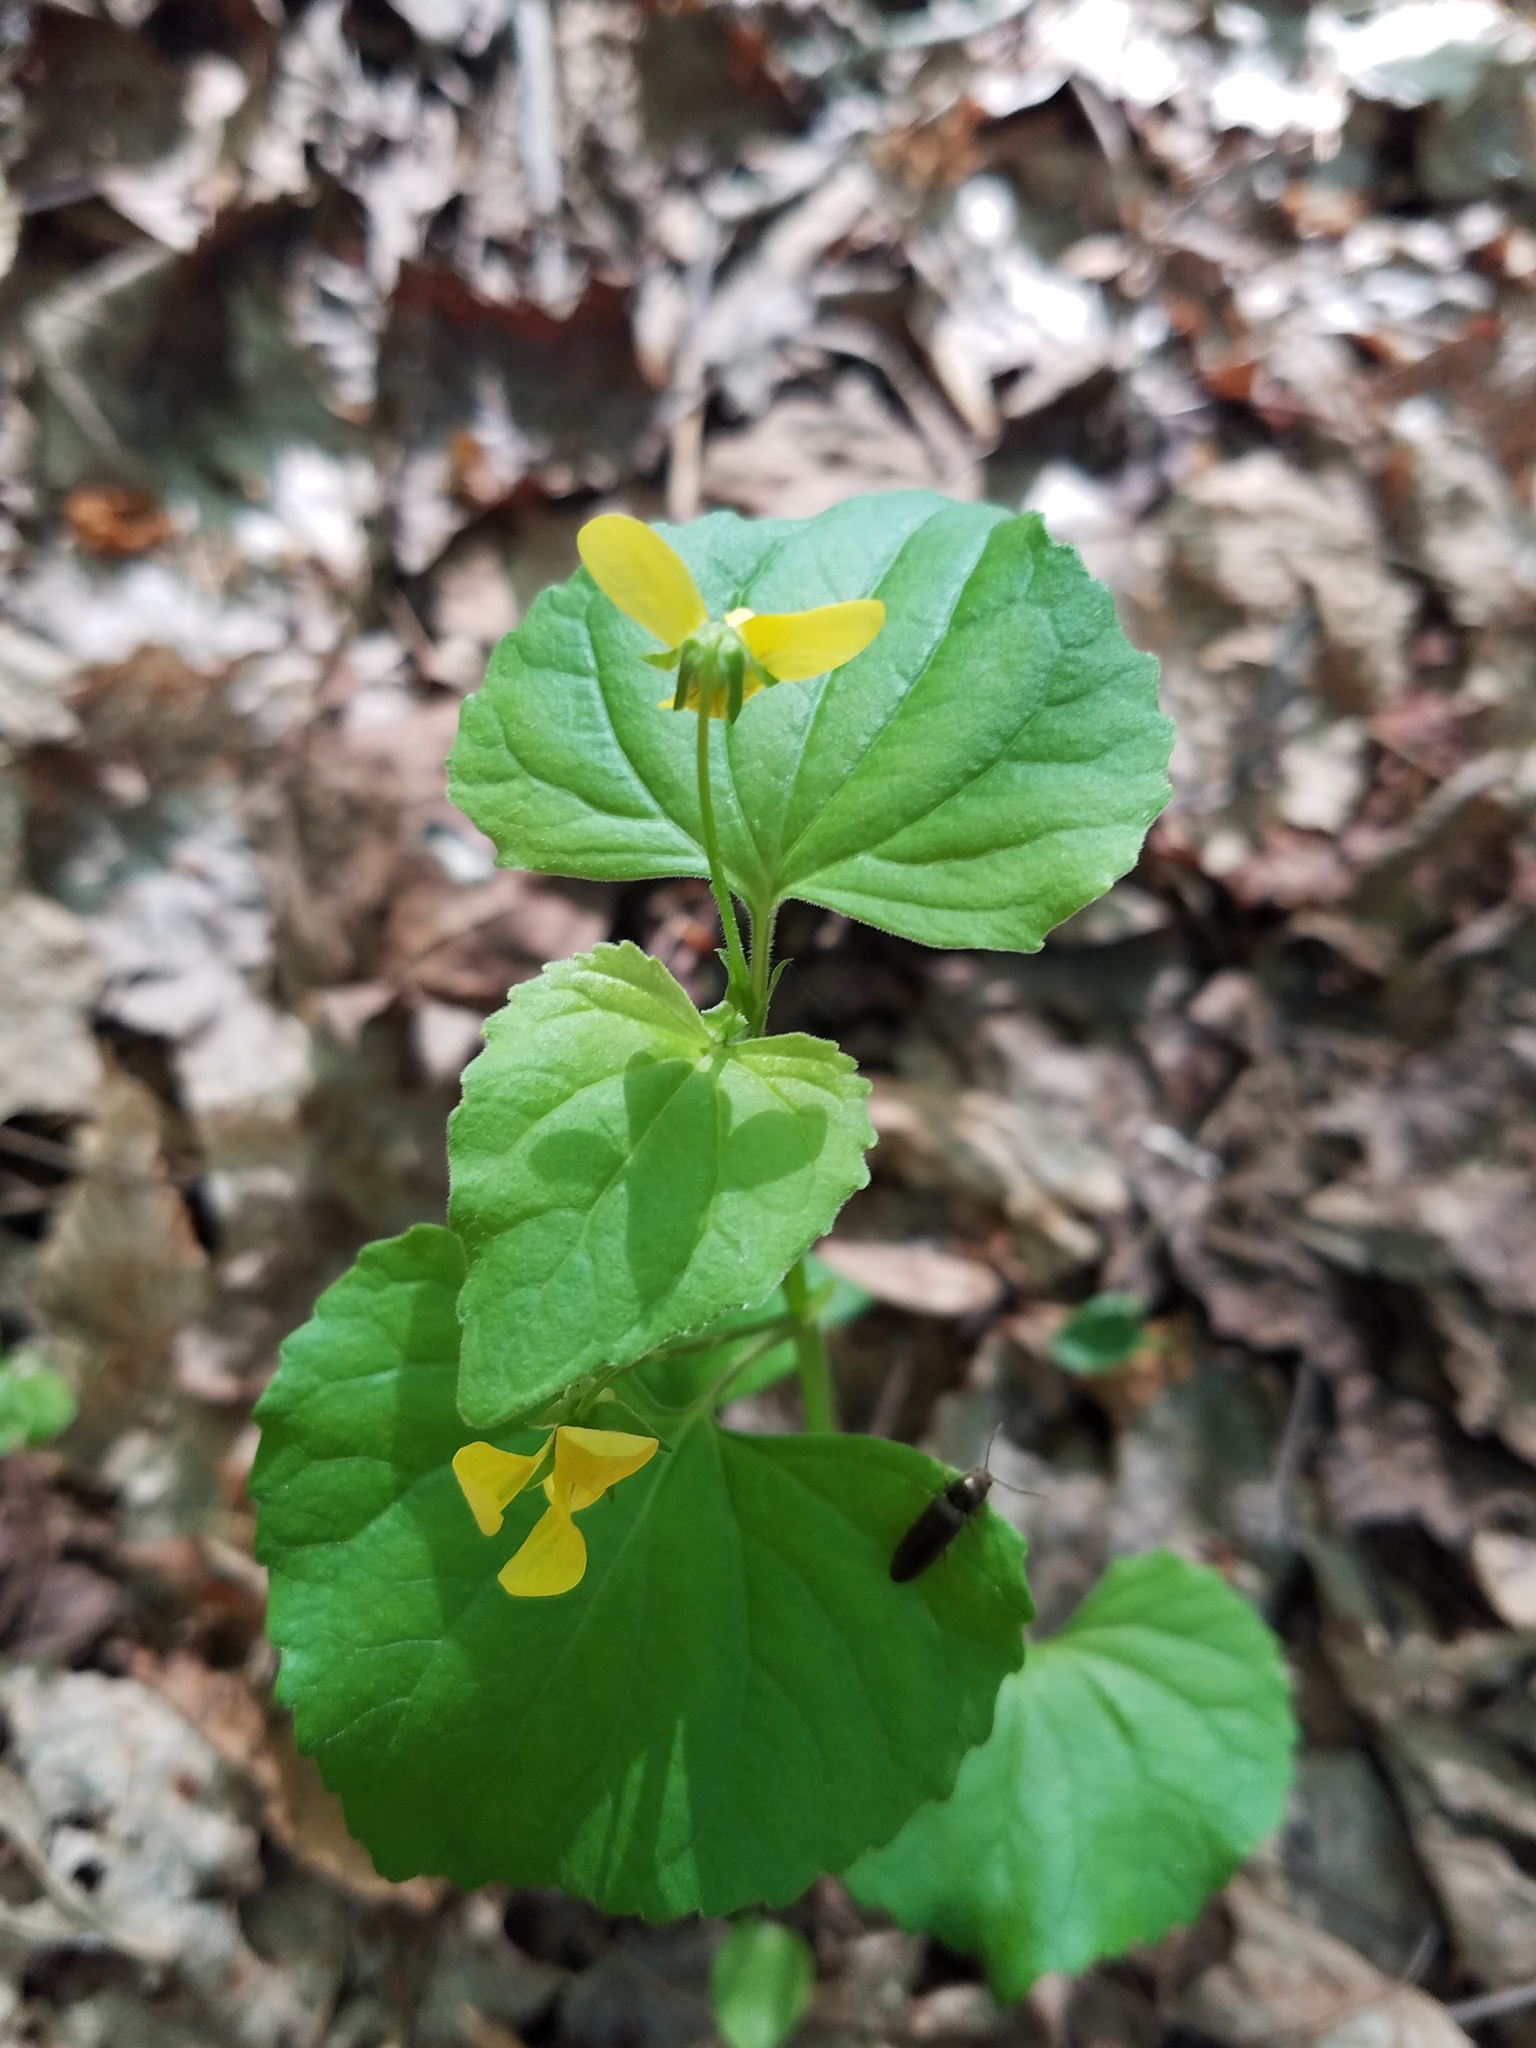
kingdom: Plantae
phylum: Tracheophyta
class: Magnoliopsida
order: Malpighiales
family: Violaceae
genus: Viola
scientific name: Viola eriocarpa
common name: Smooth yellow violet
